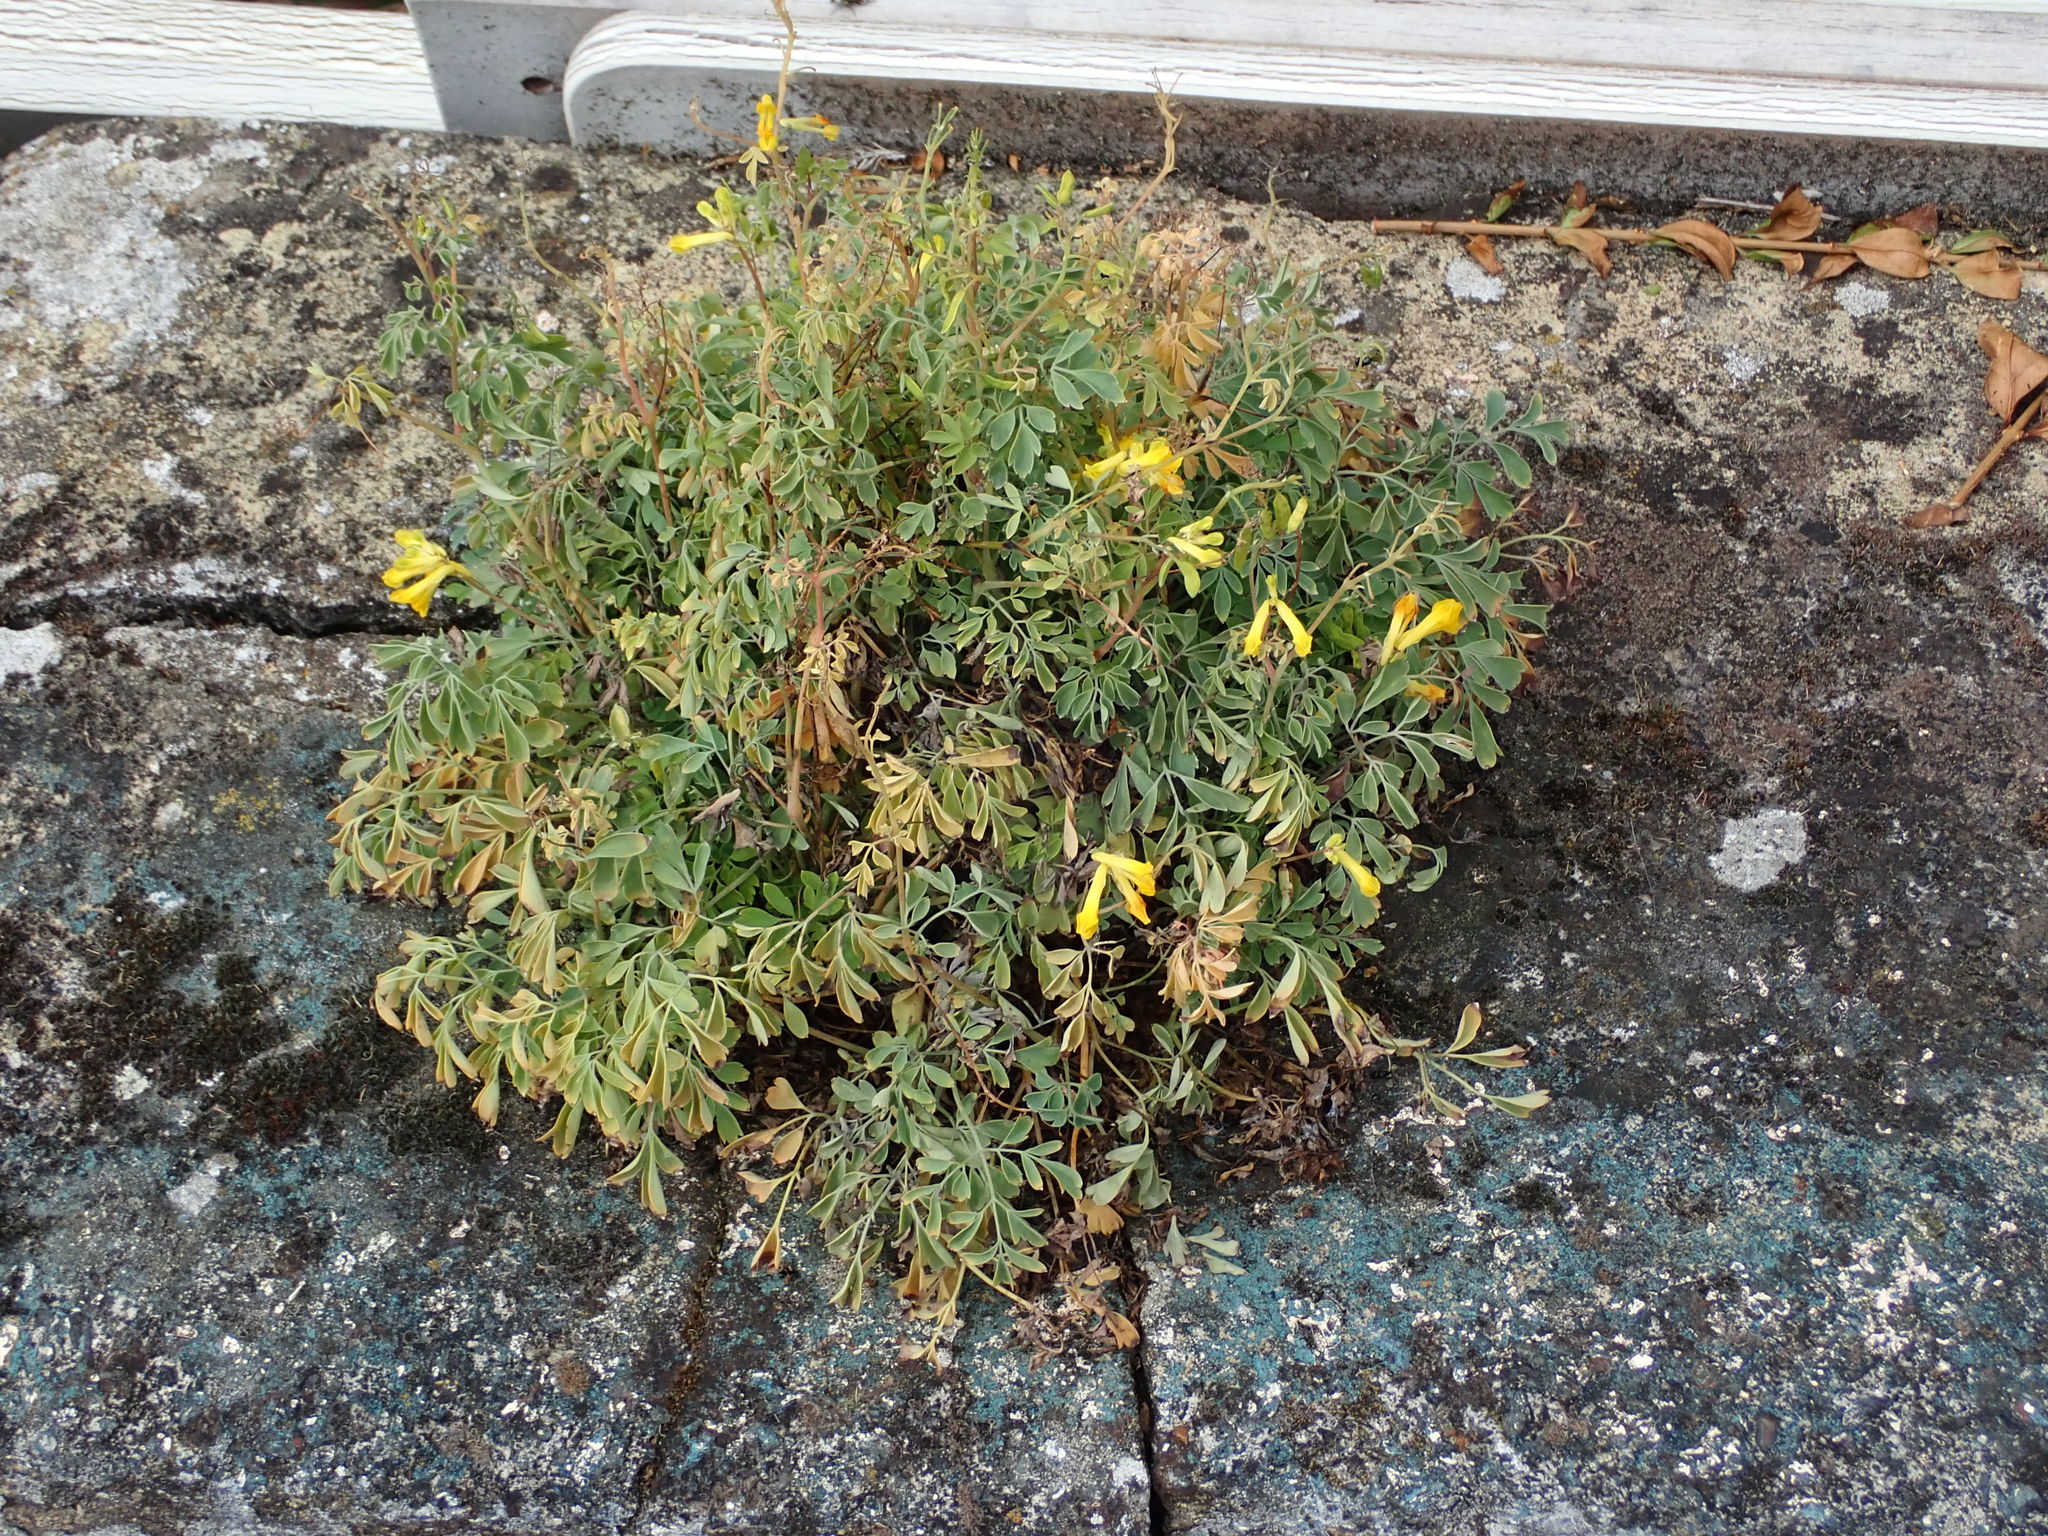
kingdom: Plantae
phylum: Tracheophyta
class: Magnoliopsida
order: Ranunculales
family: Papaveraceae
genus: Pseudofumaria
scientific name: Pseudofumaria lutea
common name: Yellow corydalis
